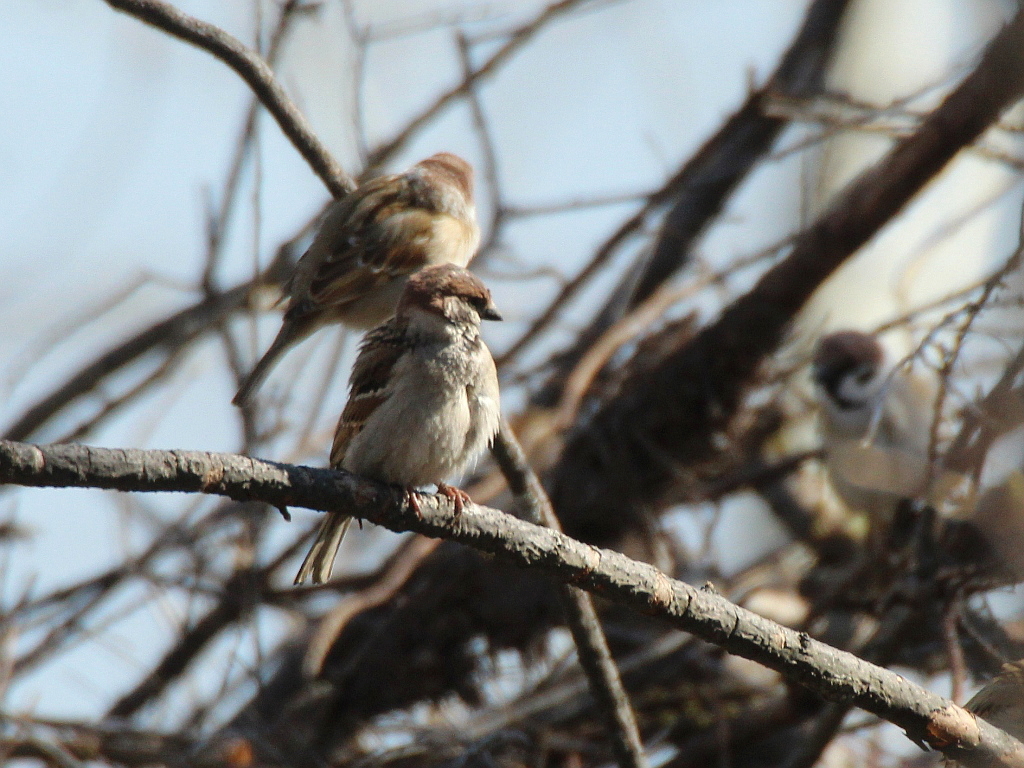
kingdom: Animalia
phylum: Chordata
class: Aves
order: Passeriformes
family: Passeridae
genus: Passer
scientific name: Passer montanus
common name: Eurasian tree sparrow
